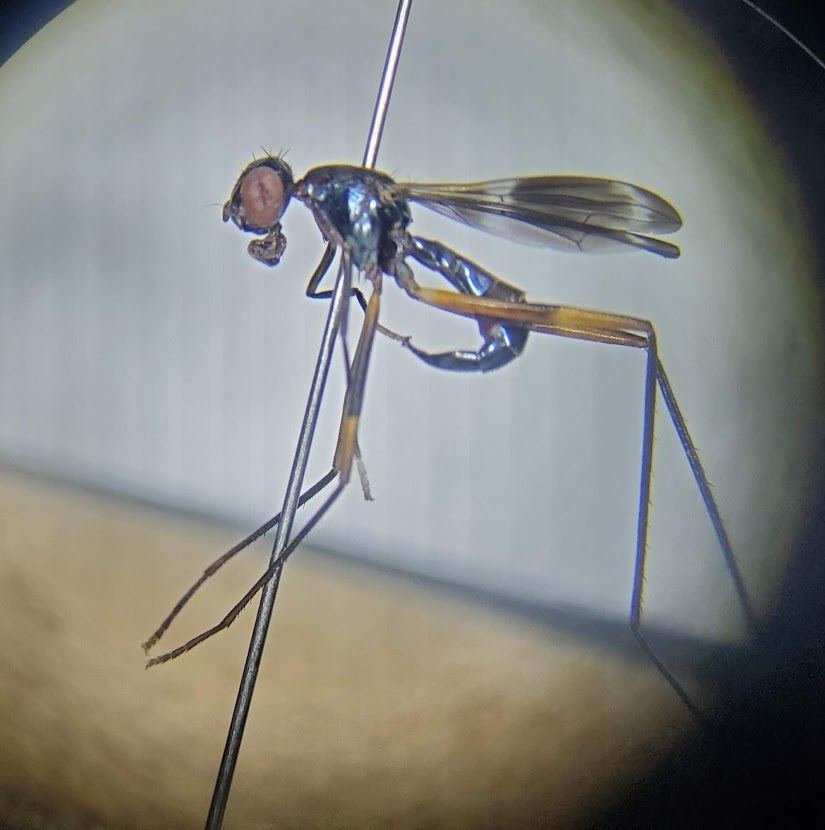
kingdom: Animalia
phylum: Arthropoda
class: Insecta
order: Diptera
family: Micropezidae
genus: Taeniaptera
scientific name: Taeniaptera trivittata
